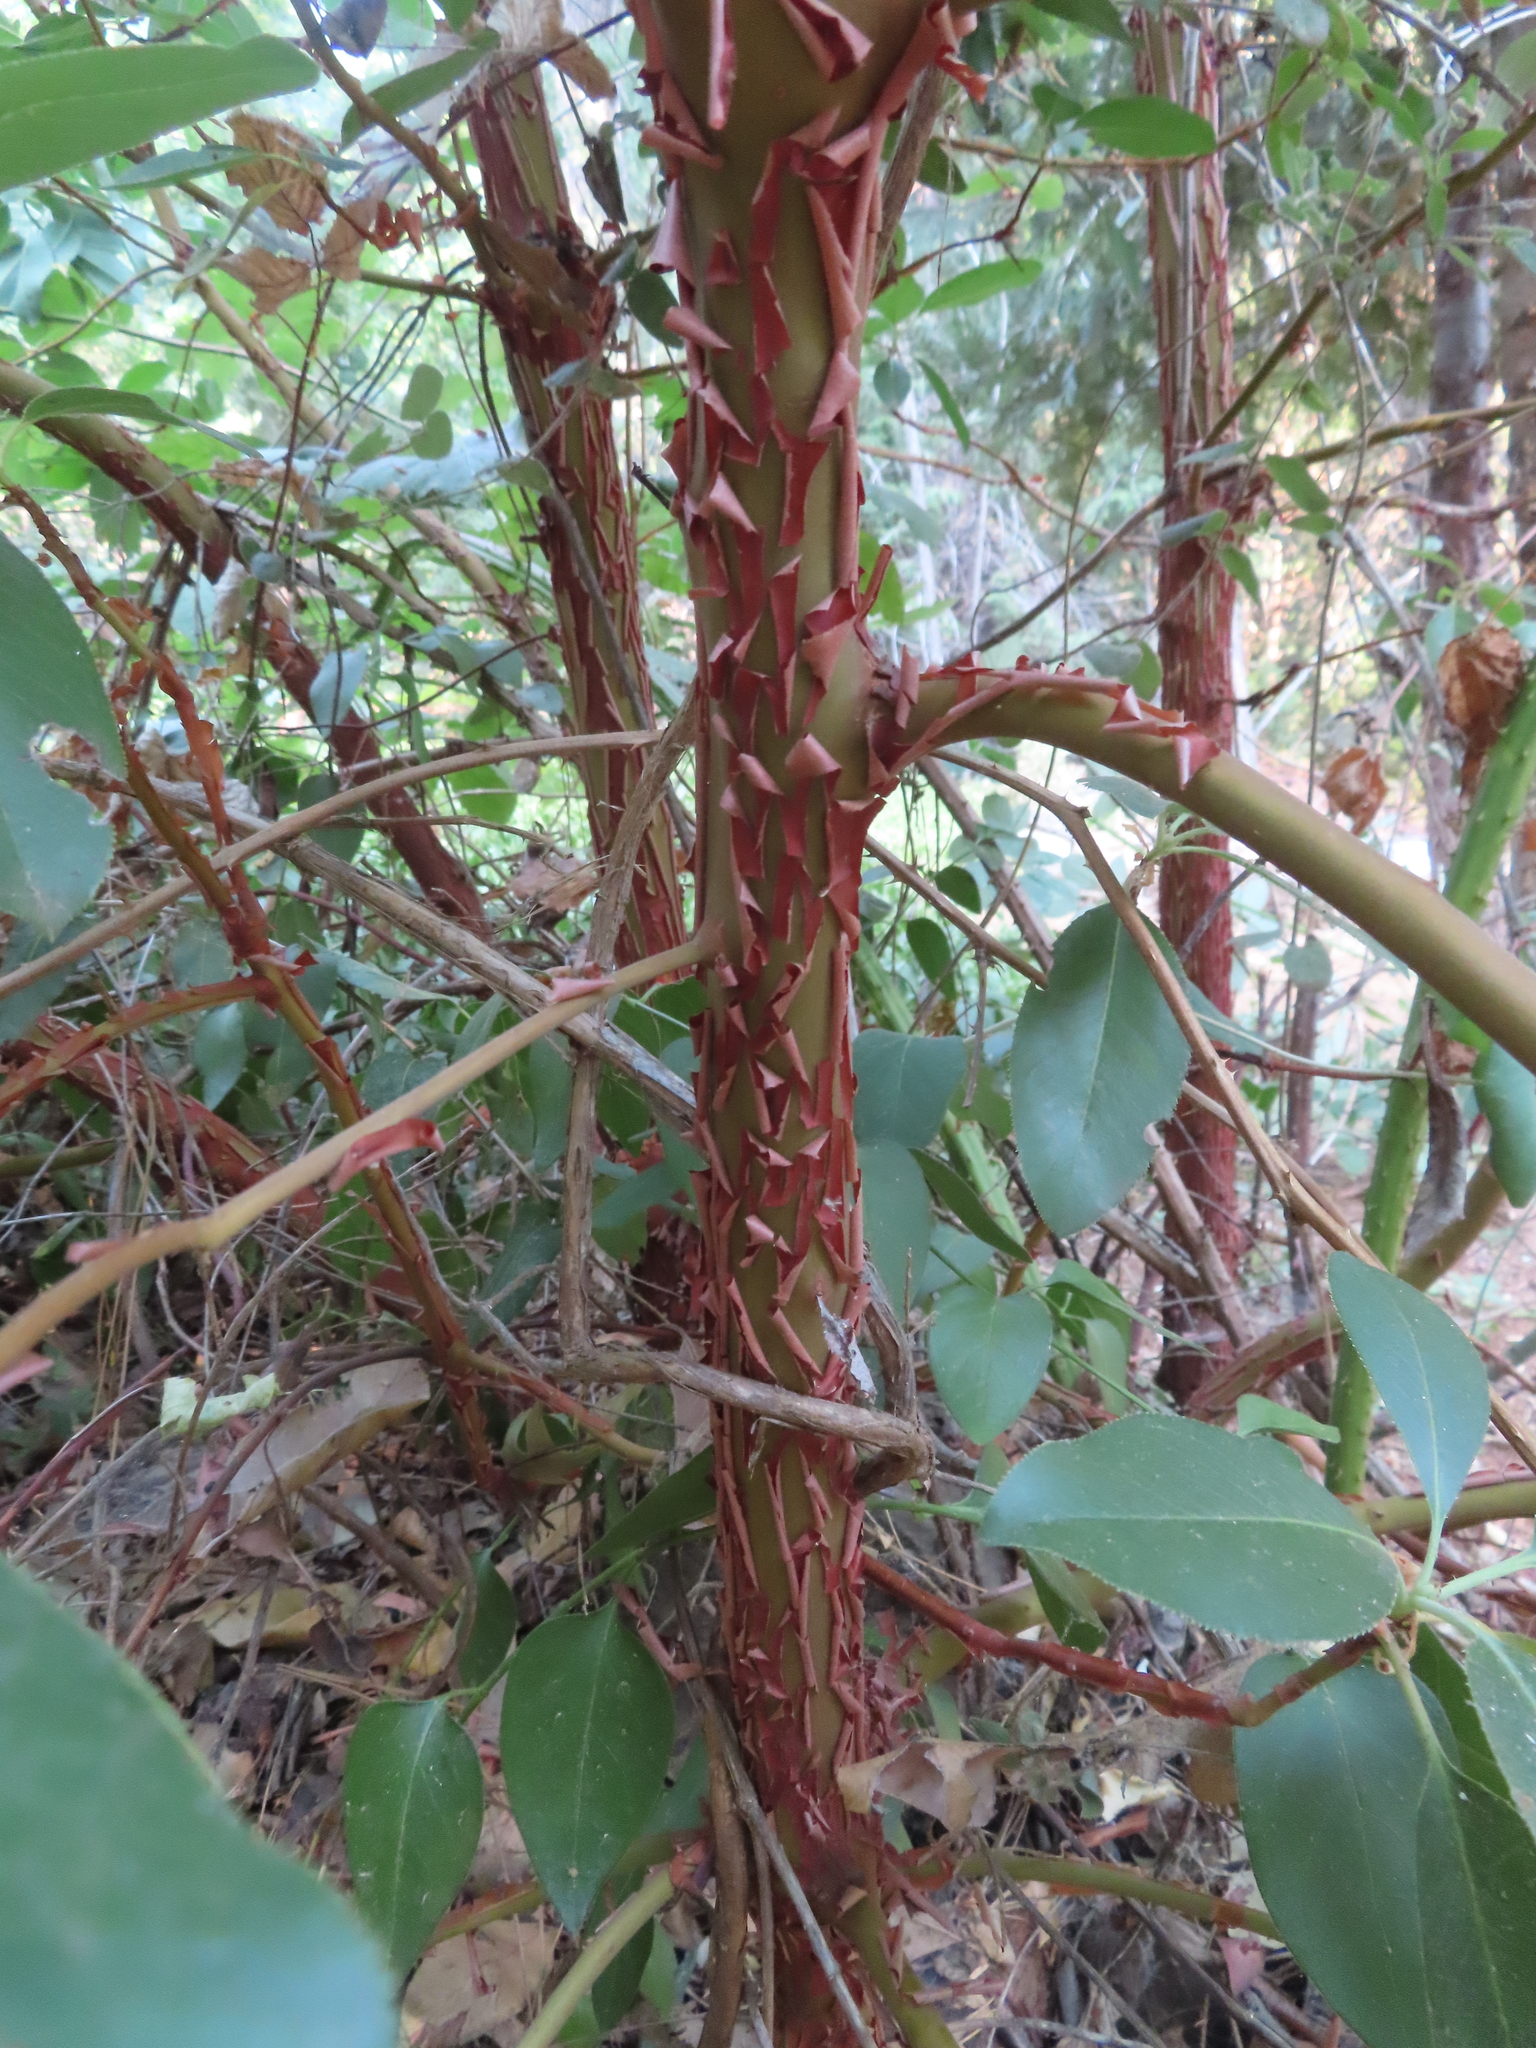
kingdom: Plantae
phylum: Tracheophyta
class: Magnoliopsida
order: Ericales
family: Ericaceae
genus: Arbutus
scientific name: Arbutus menziesii
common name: Pacific madrone
